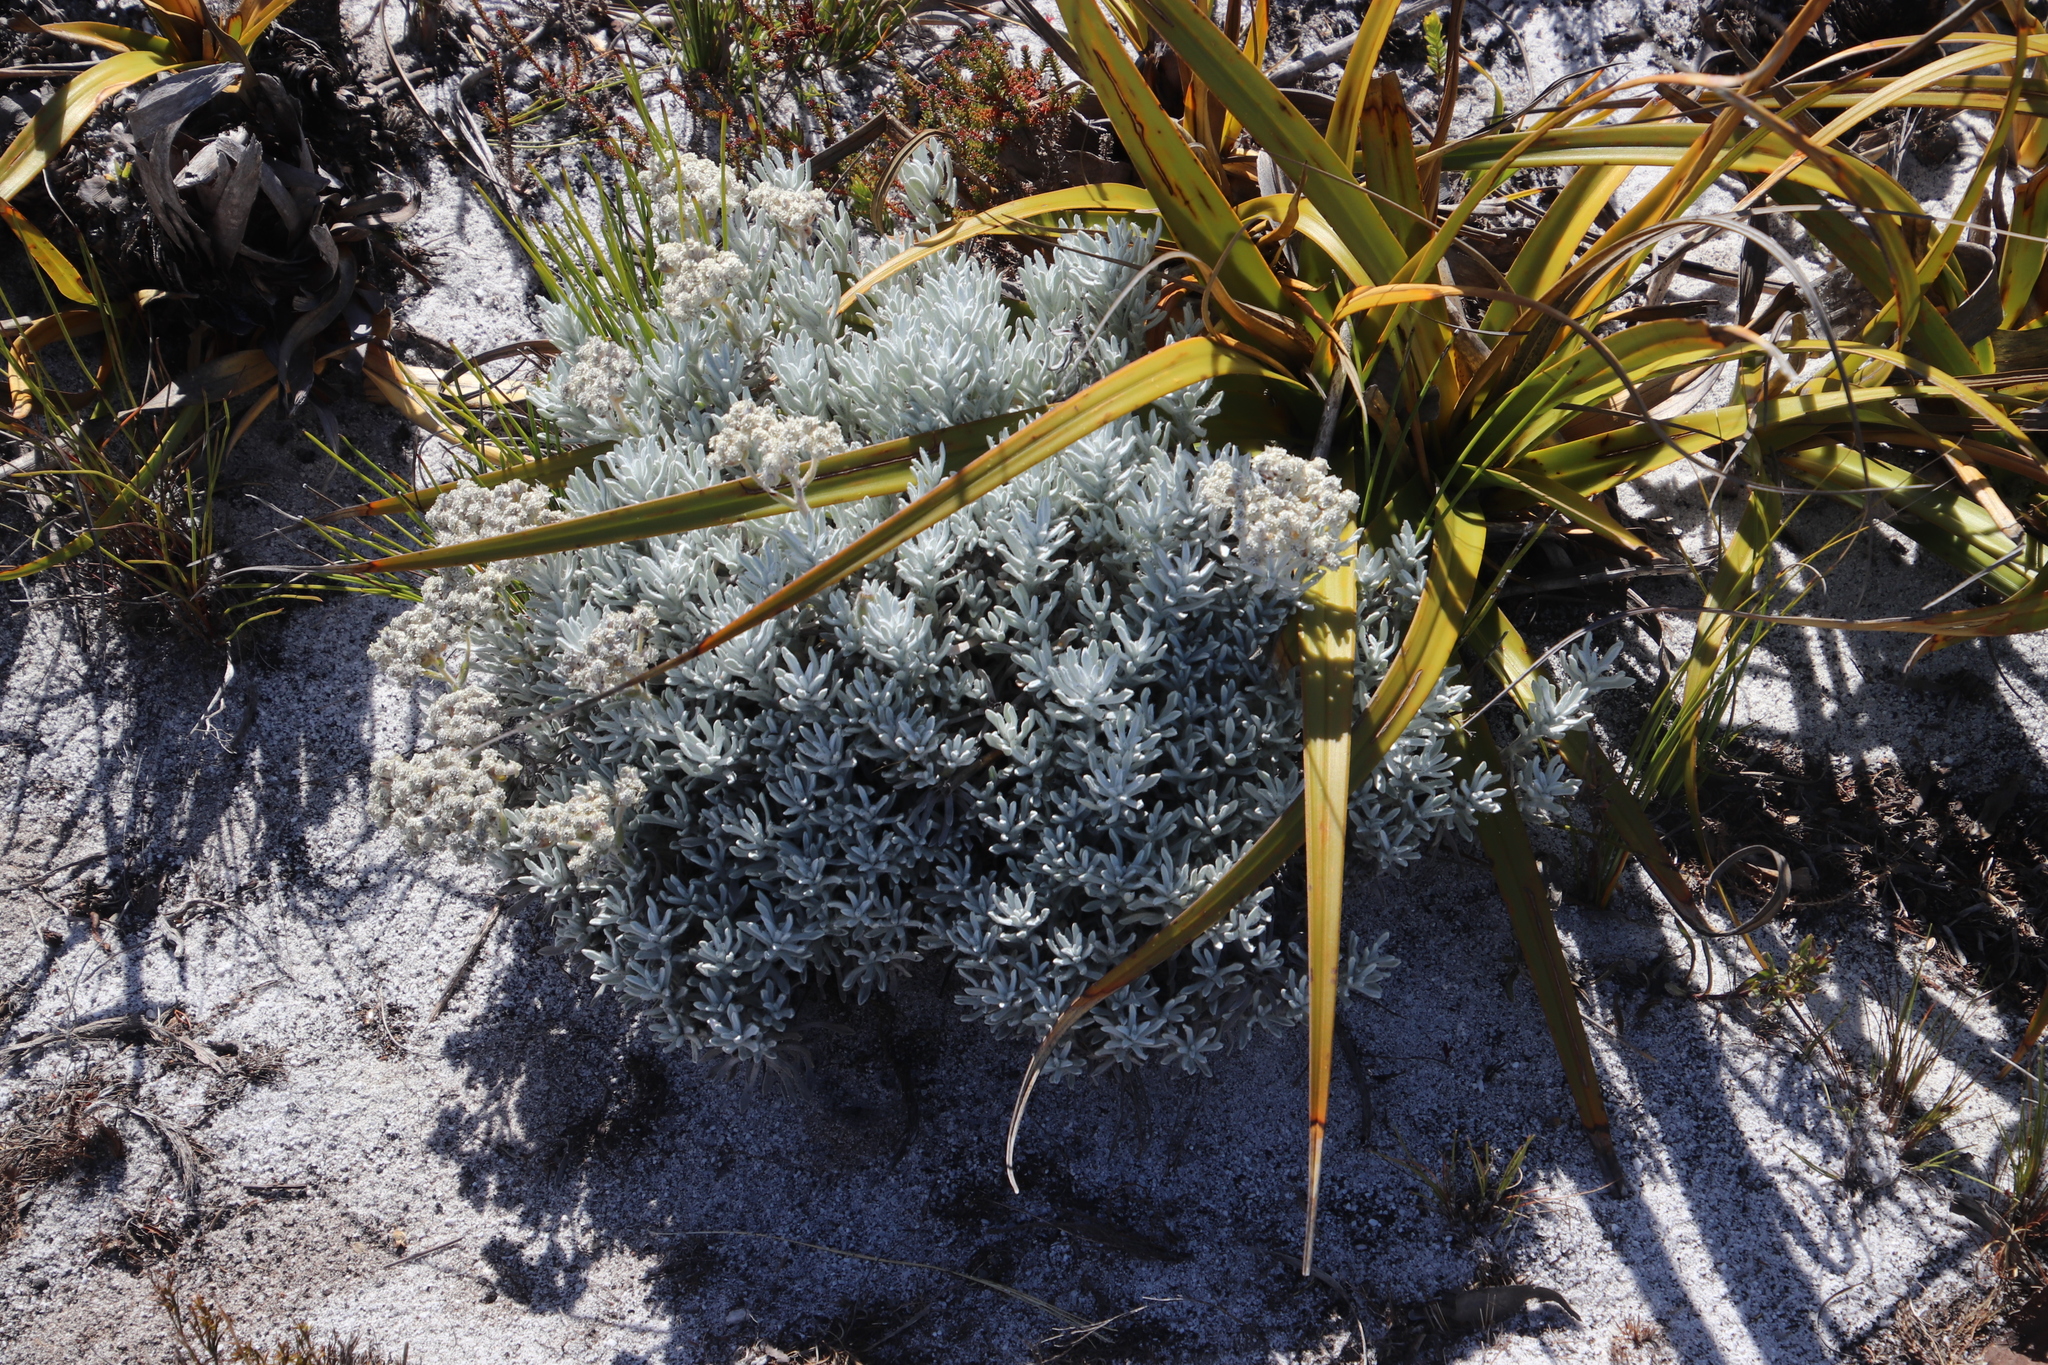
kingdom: Plantae
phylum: Tracheophyta
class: Magnoliopsida
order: Asterales
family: Asteraceae
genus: Petalacte
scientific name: Petalacte coronata
